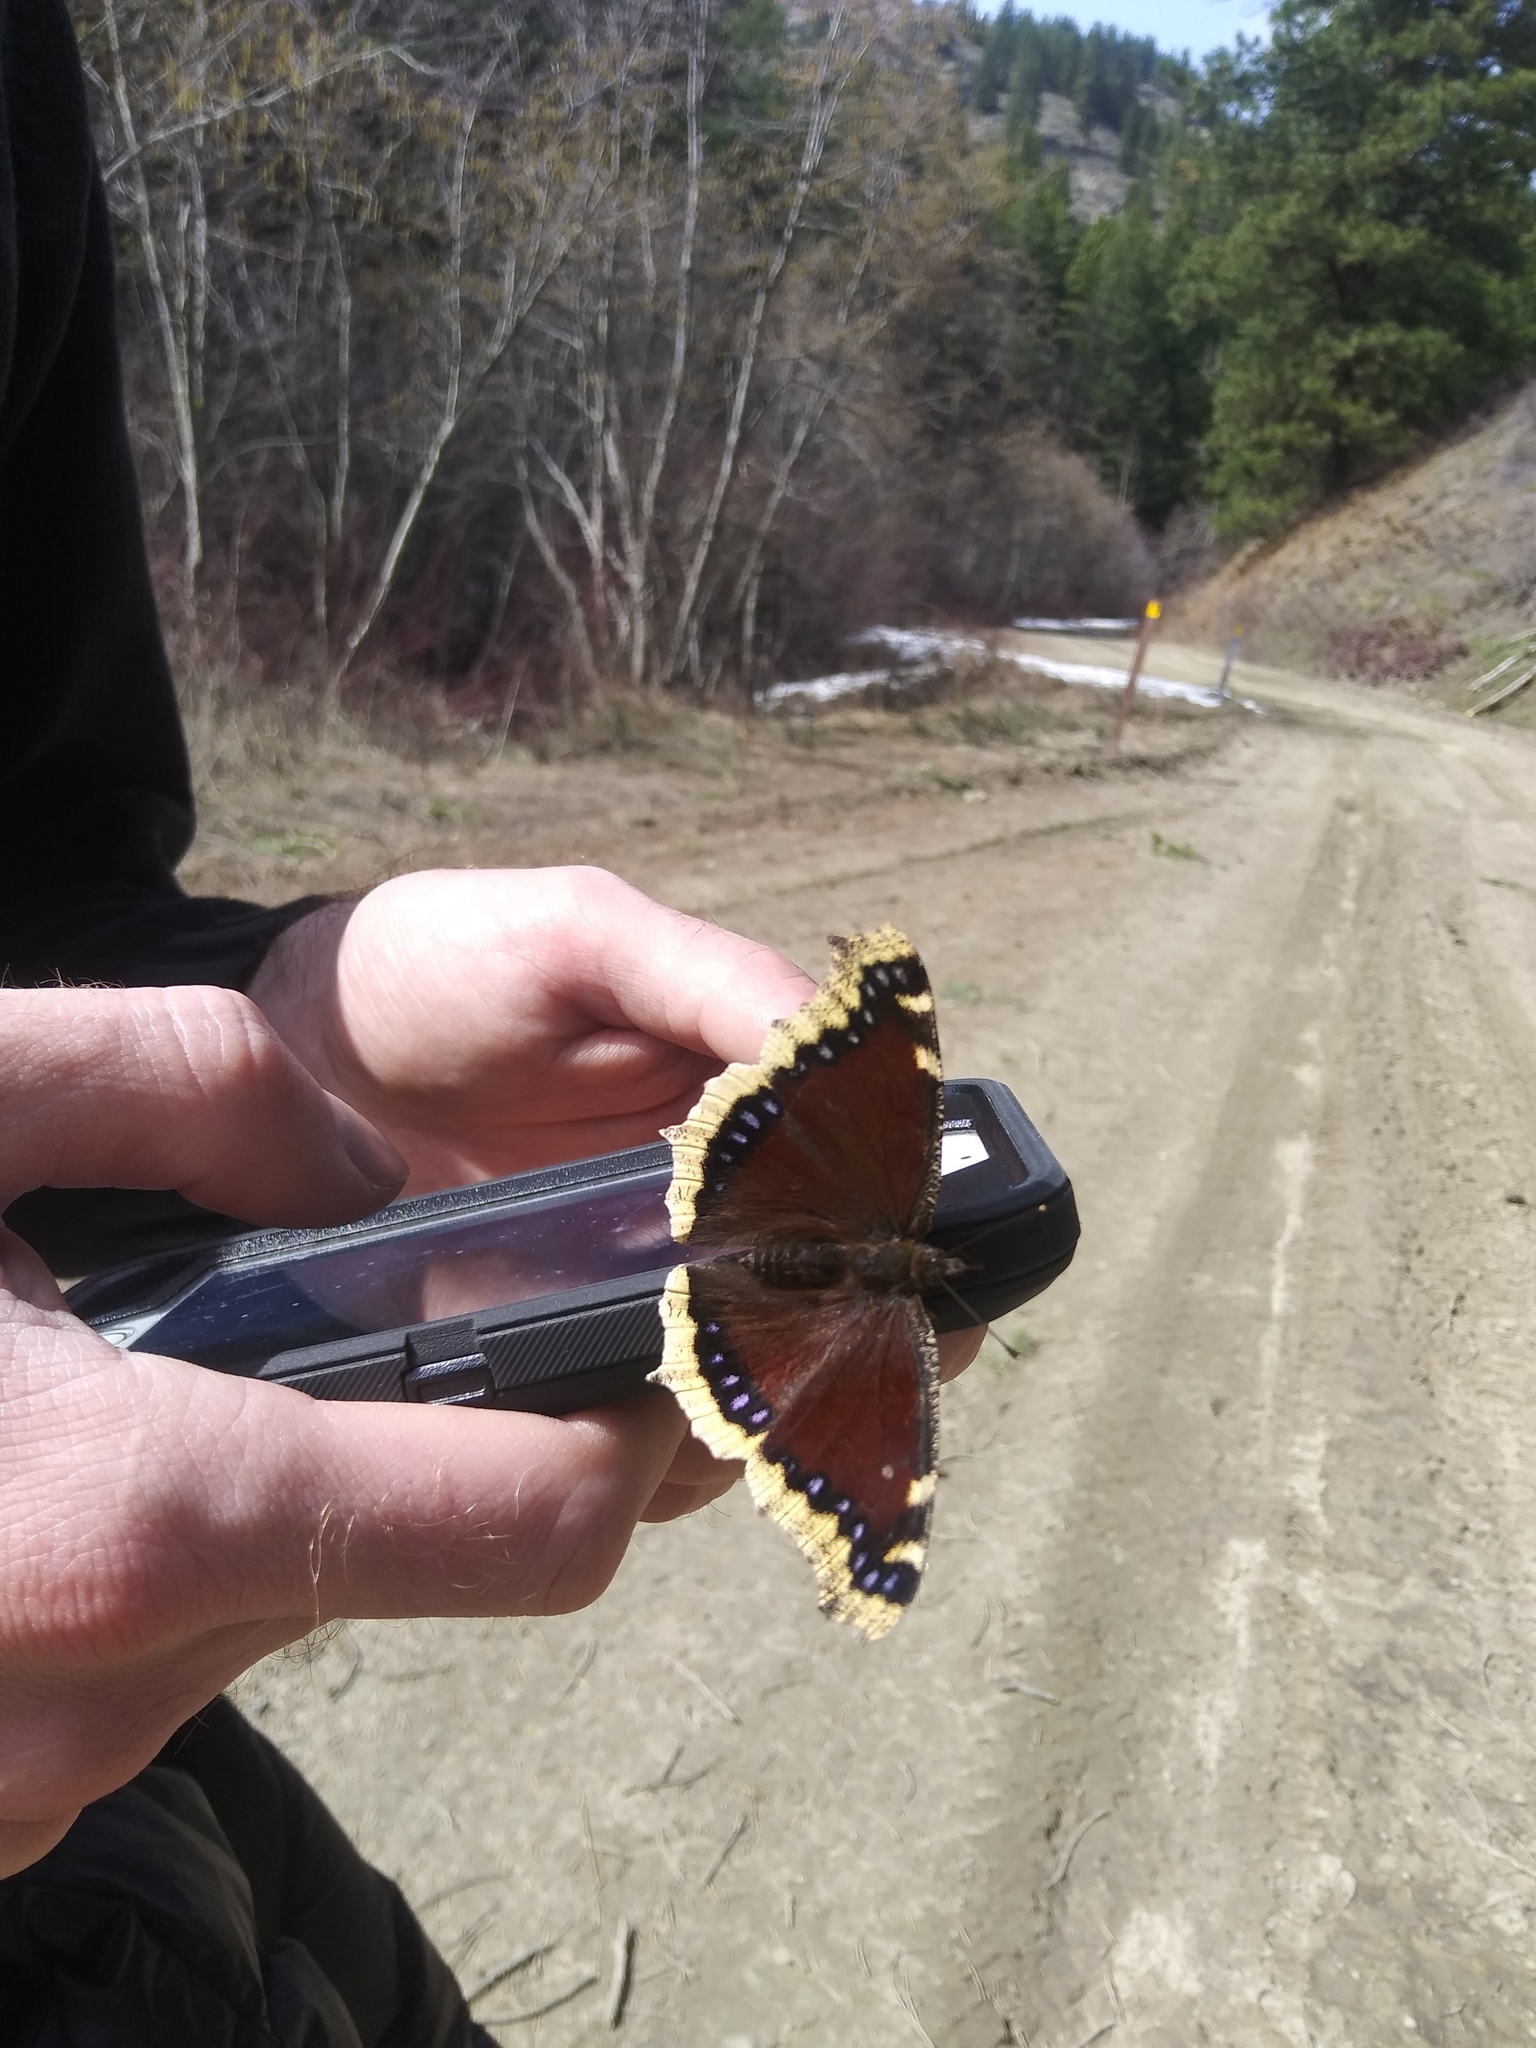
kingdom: Animalia
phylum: Arthropoda
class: Insecta
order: Lepidoptera
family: Nymphalidae
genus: Nymphalis
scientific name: Nymphalis antiopa
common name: Camberwell beauty
